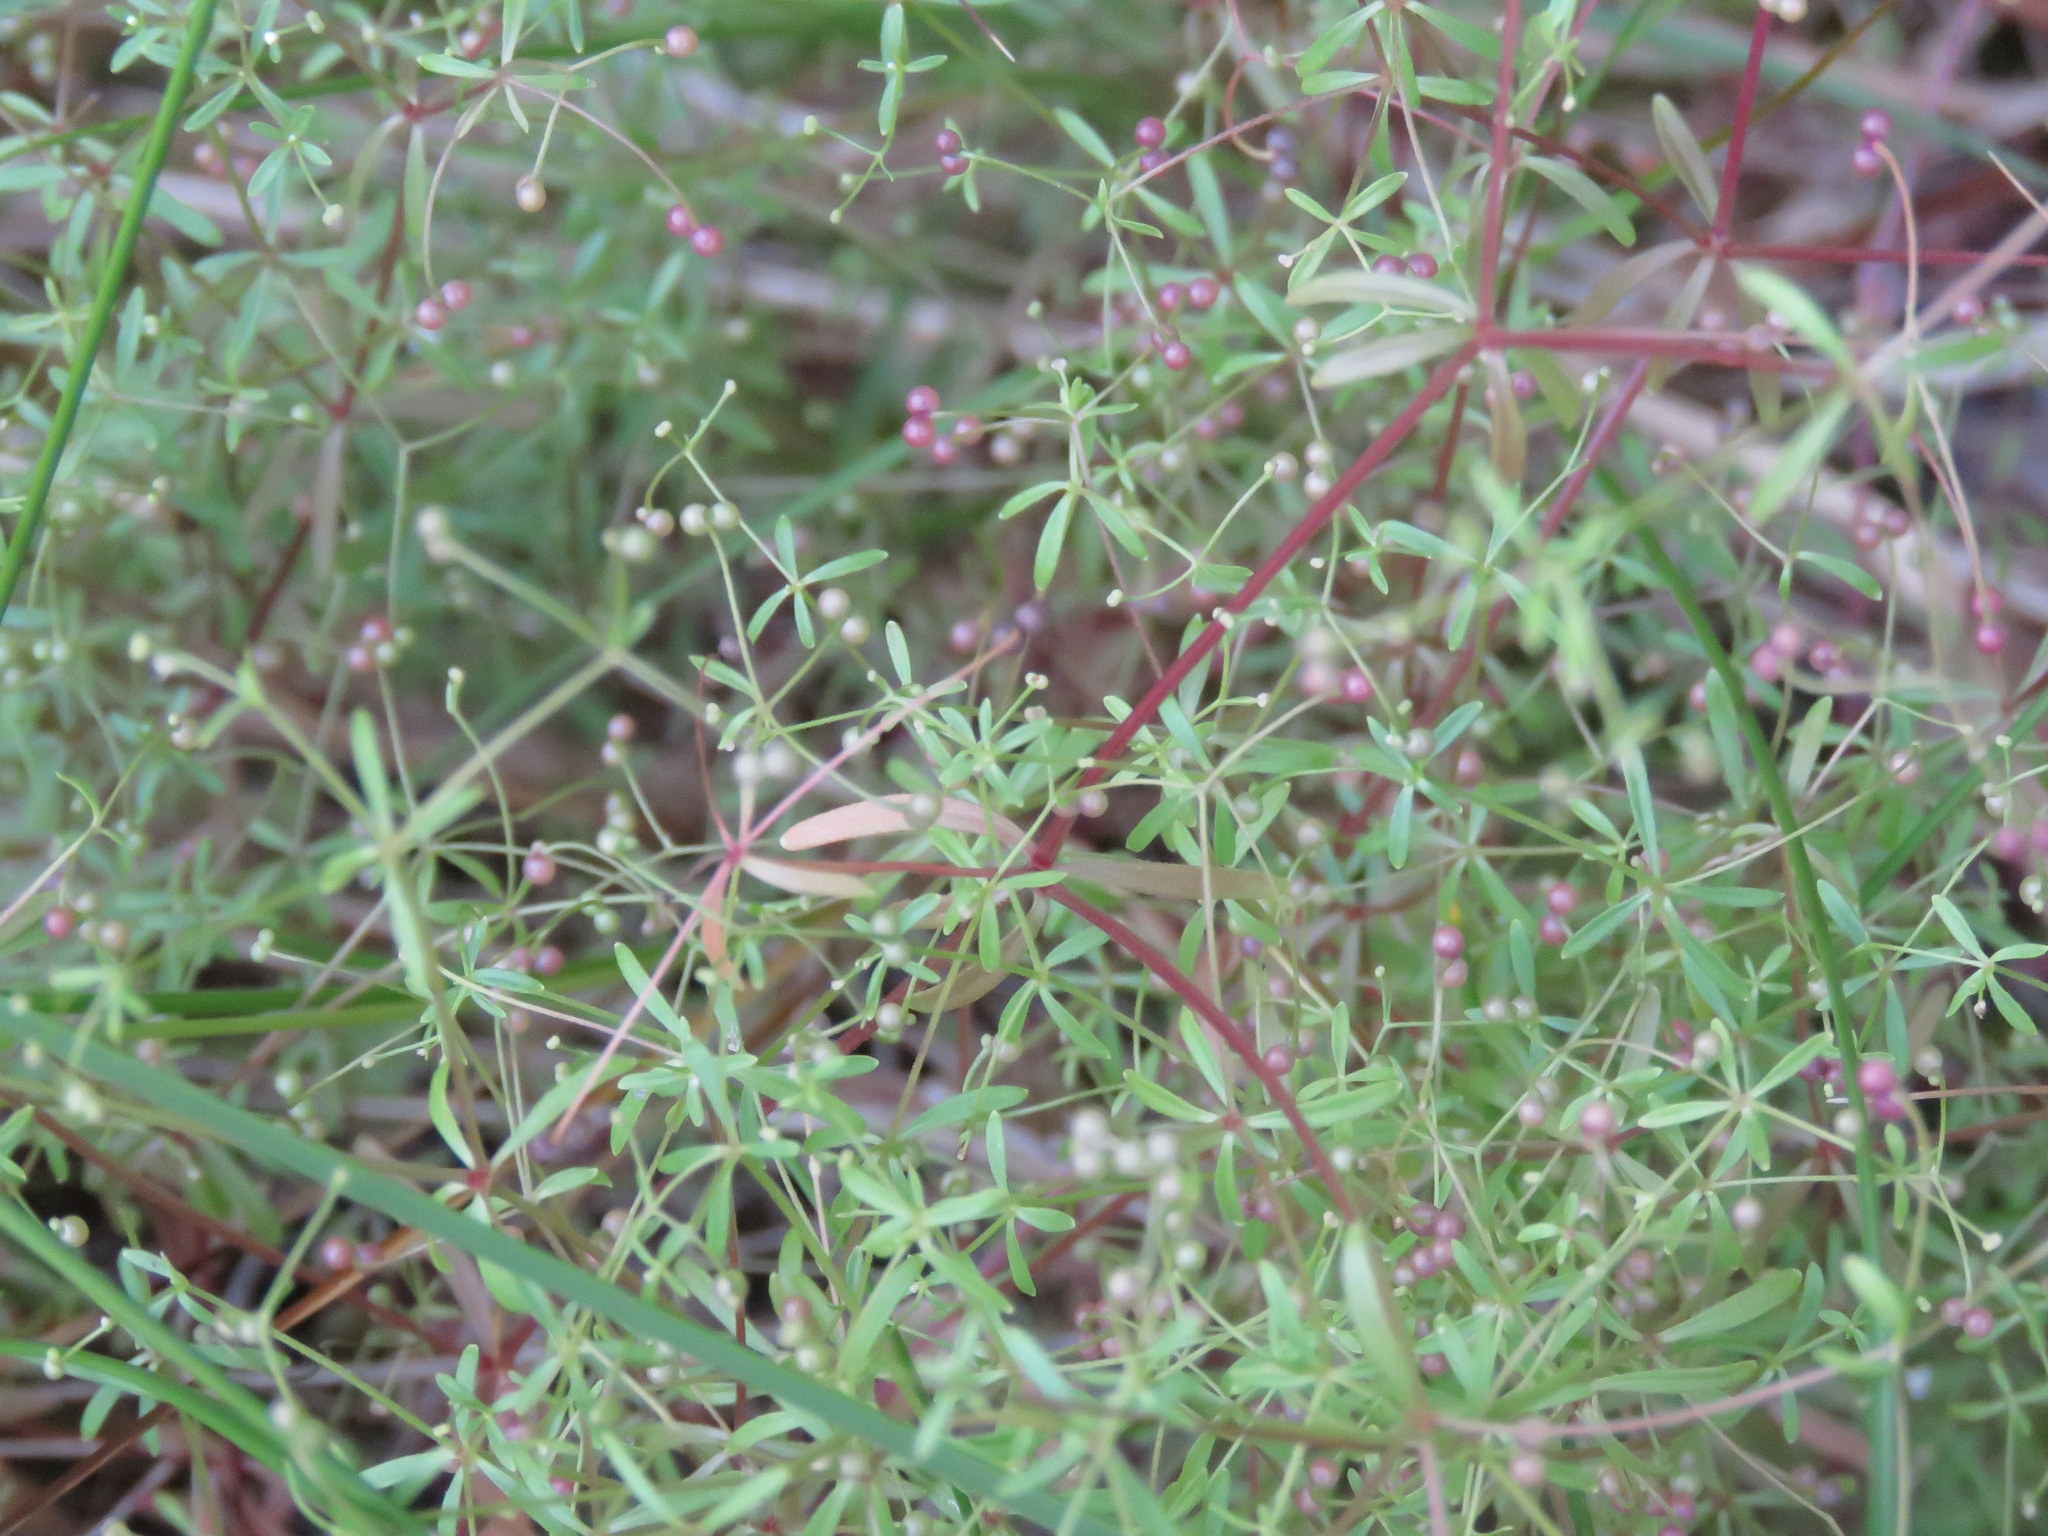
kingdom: Plantae
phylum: Tracheophyta
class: Magnoliopsida
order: Gentianales
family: Rubiaceae
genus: Galium
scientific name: Galium trifidum
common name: Small bedstraw
